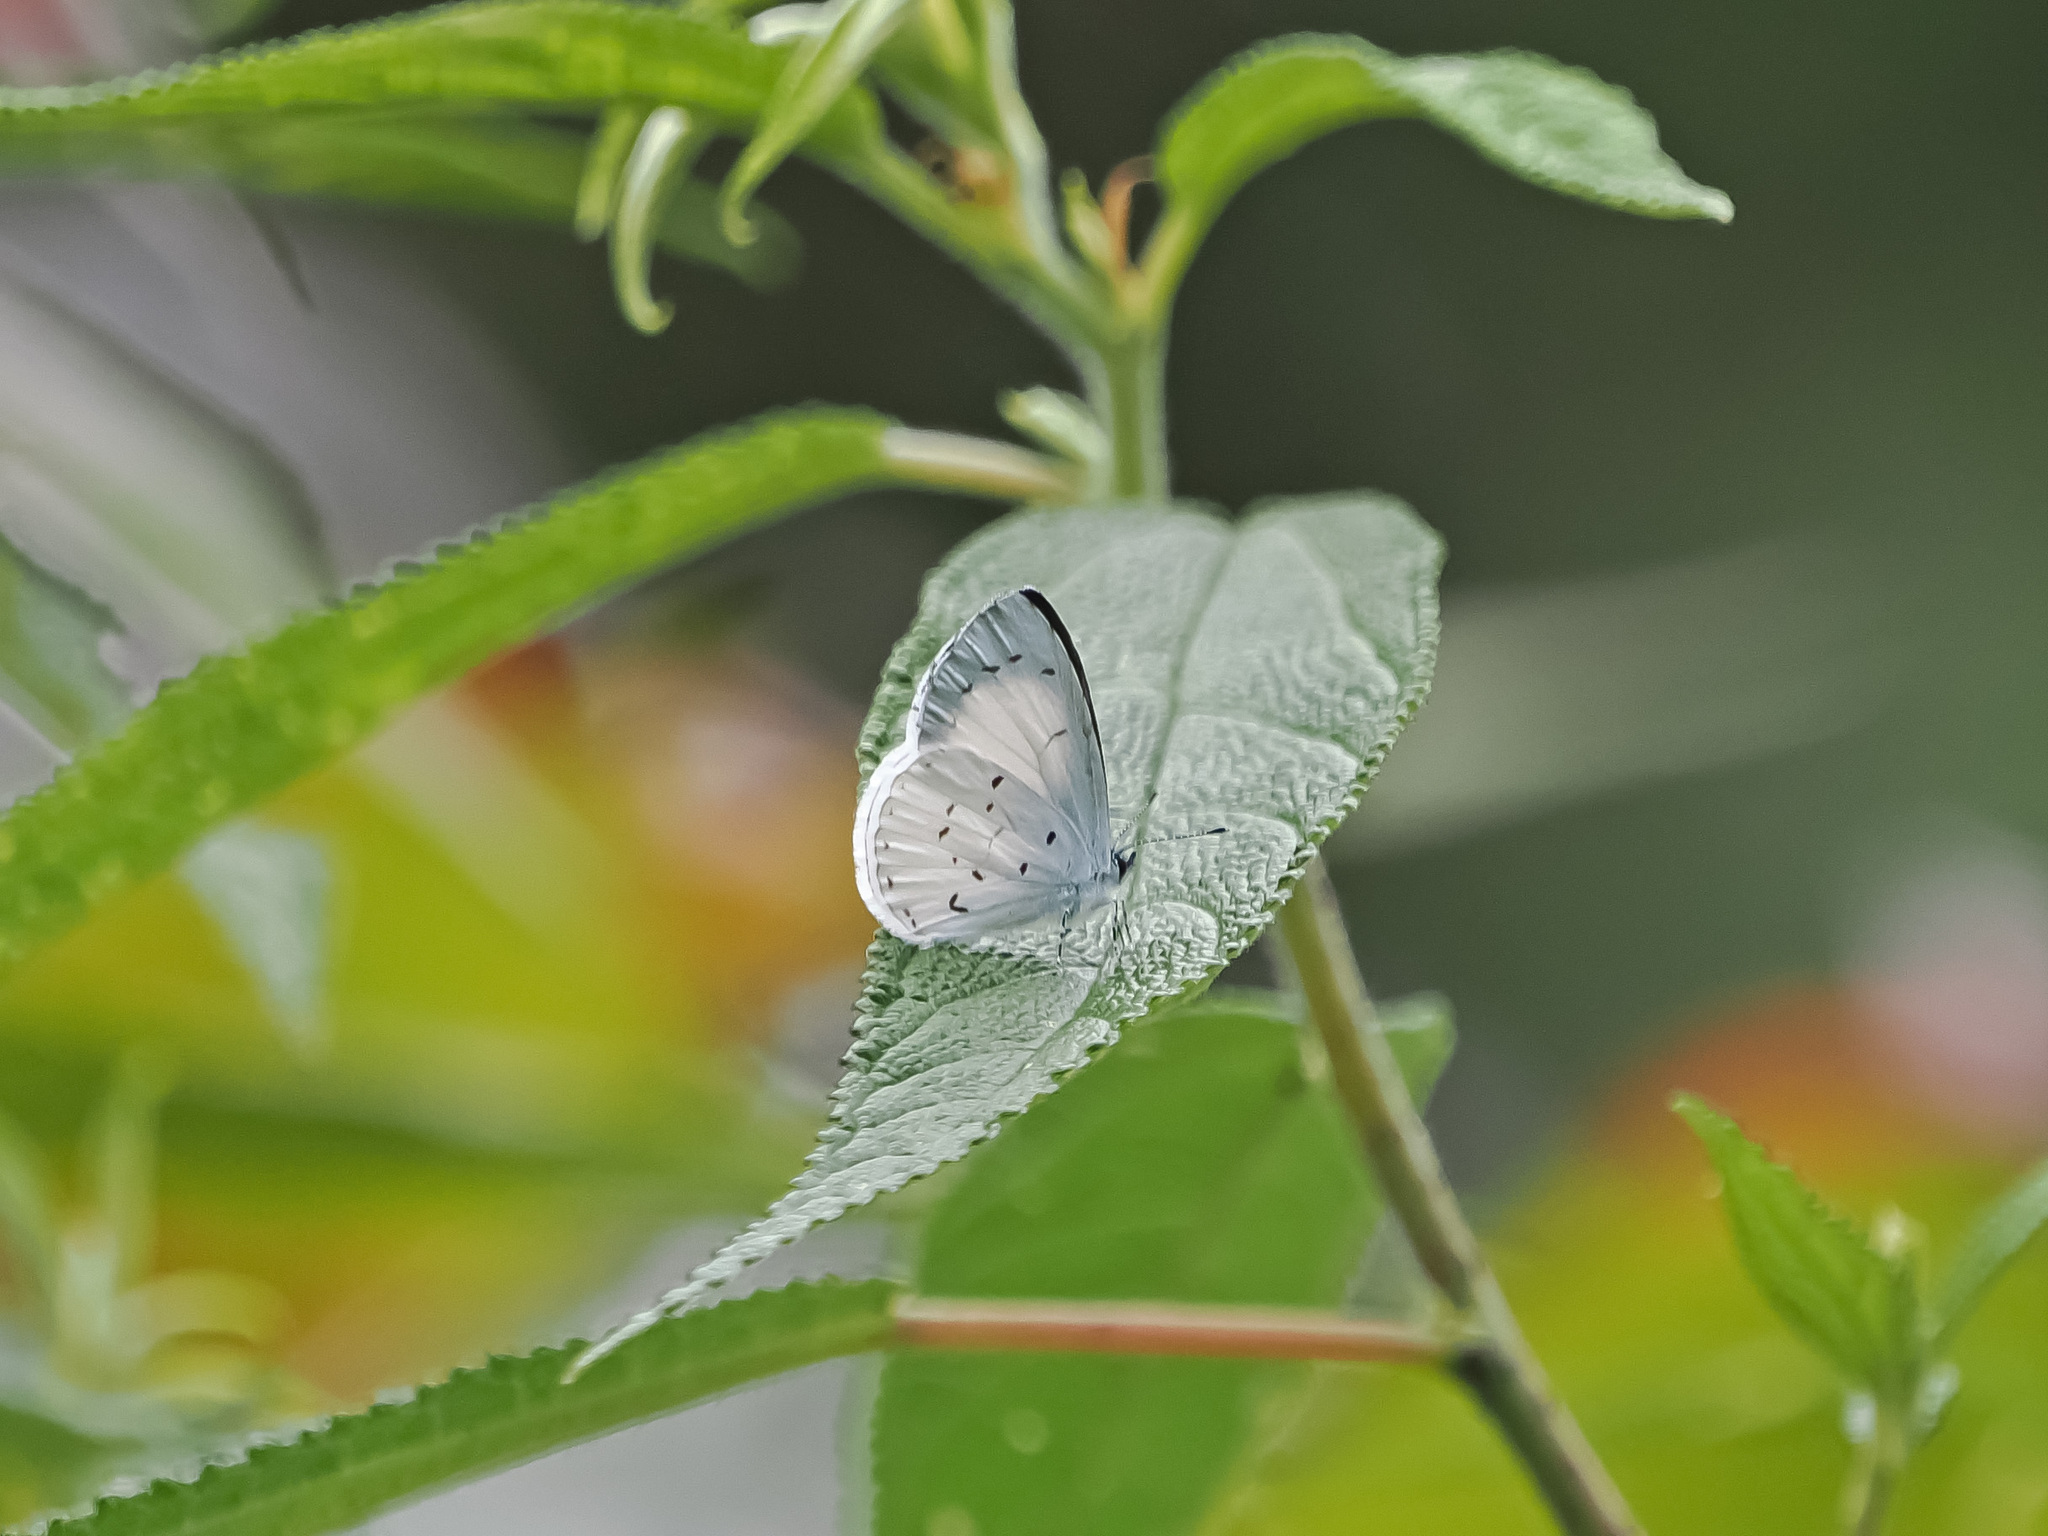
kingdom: Animalia
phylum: Arthropoda
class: Insecta
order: Lepidoptera
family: Lycaenidae
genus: Udara
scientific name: Udara akasa
